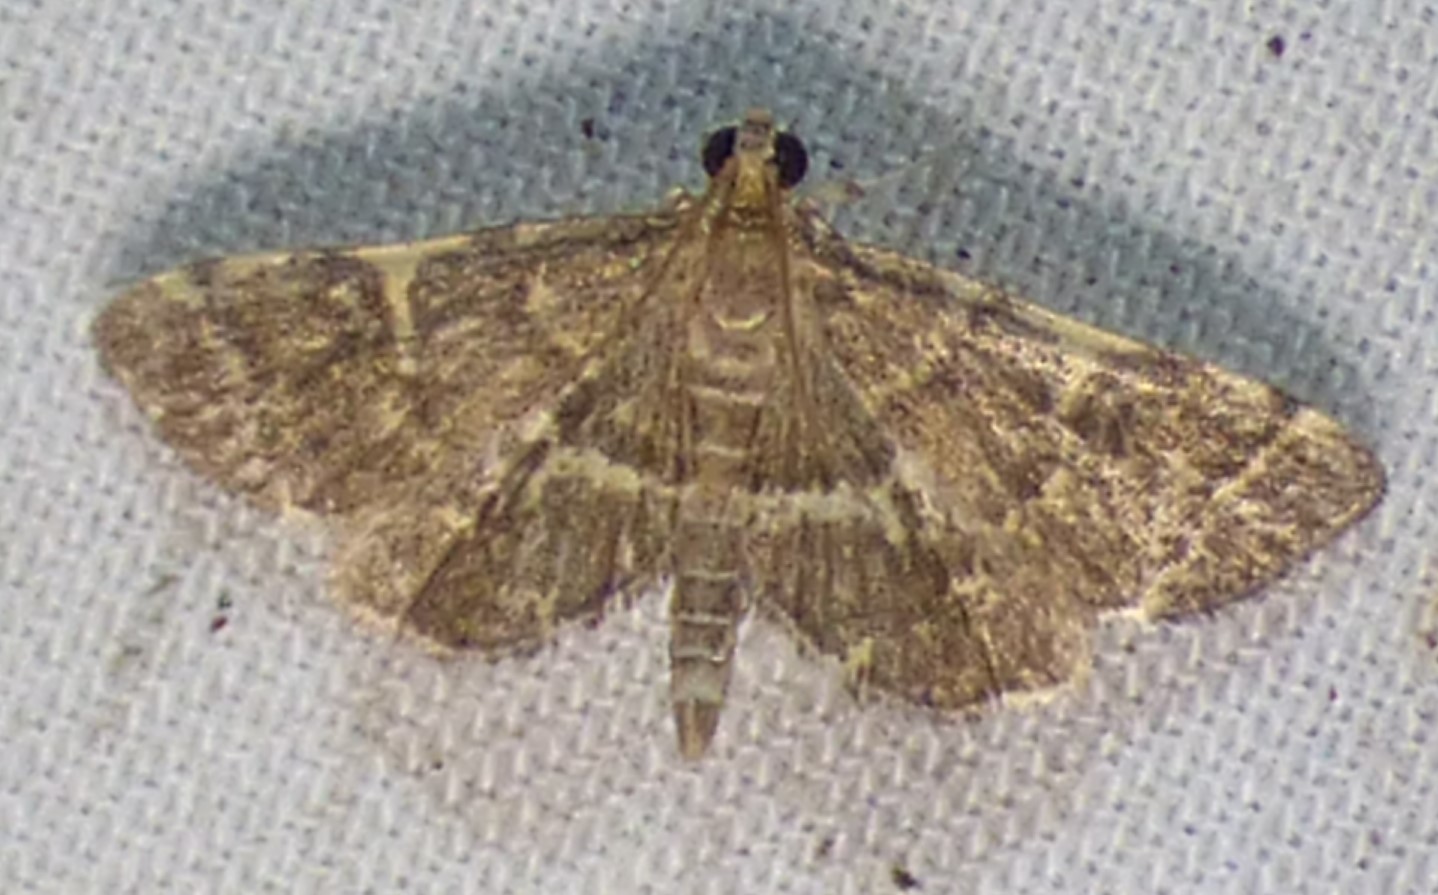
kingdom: Animalia
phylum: Arthropoda
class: Insecta
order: Lepidoptera
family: Crambidae
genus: Anageshna
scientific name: Anageshna primordialis
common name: Yellow-spotted webworm moth
